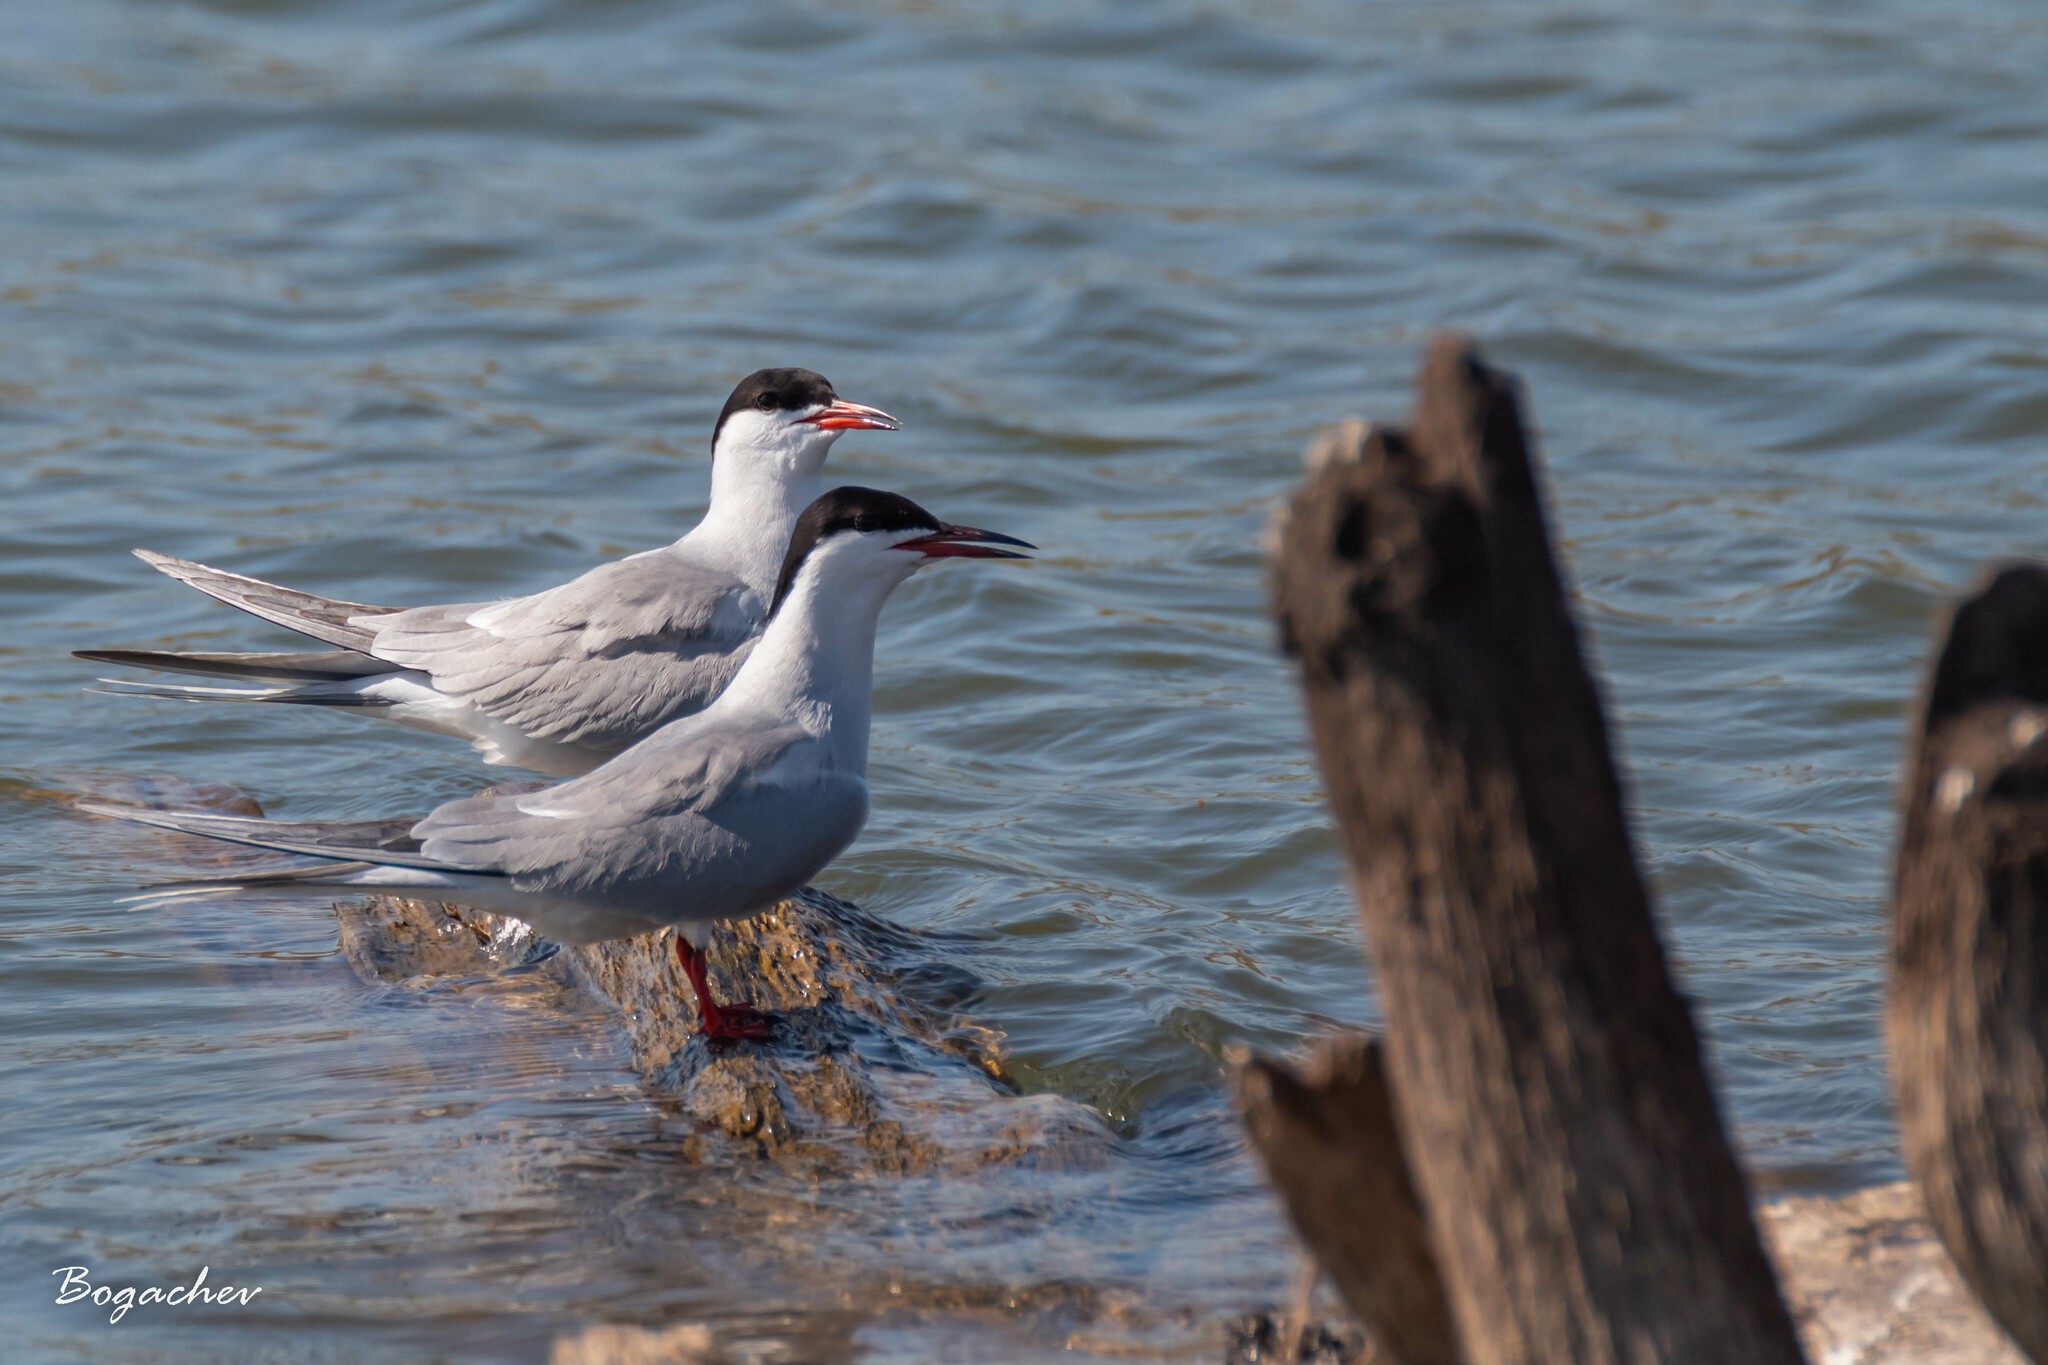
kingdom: Animalia
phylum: Chordata
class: Aves
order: Charadriiformes
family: Laridae
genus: Sterna
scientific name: Sterna hirundo
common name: Common tern
